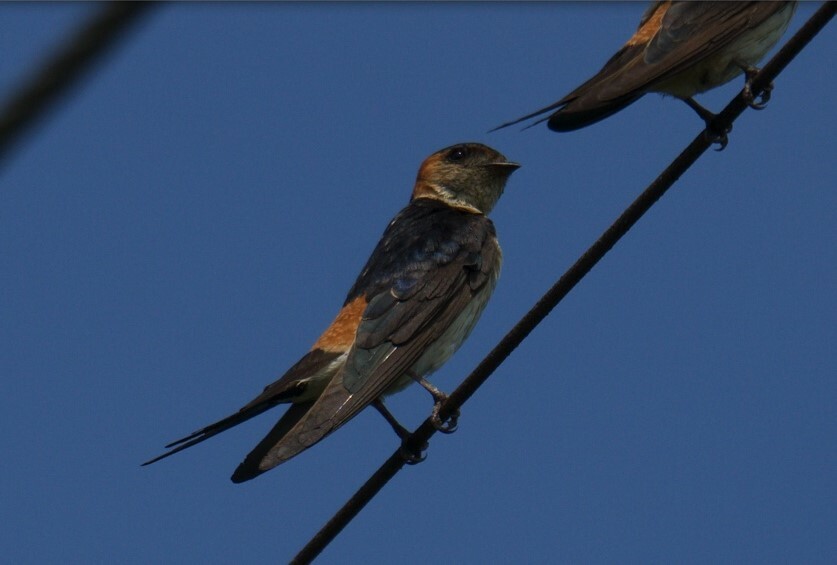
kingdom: Animalia
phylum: Chordata
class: Aves
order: Passeriformes
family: Hirundinidae
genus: Cecropis
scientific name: Cecropis daurica
